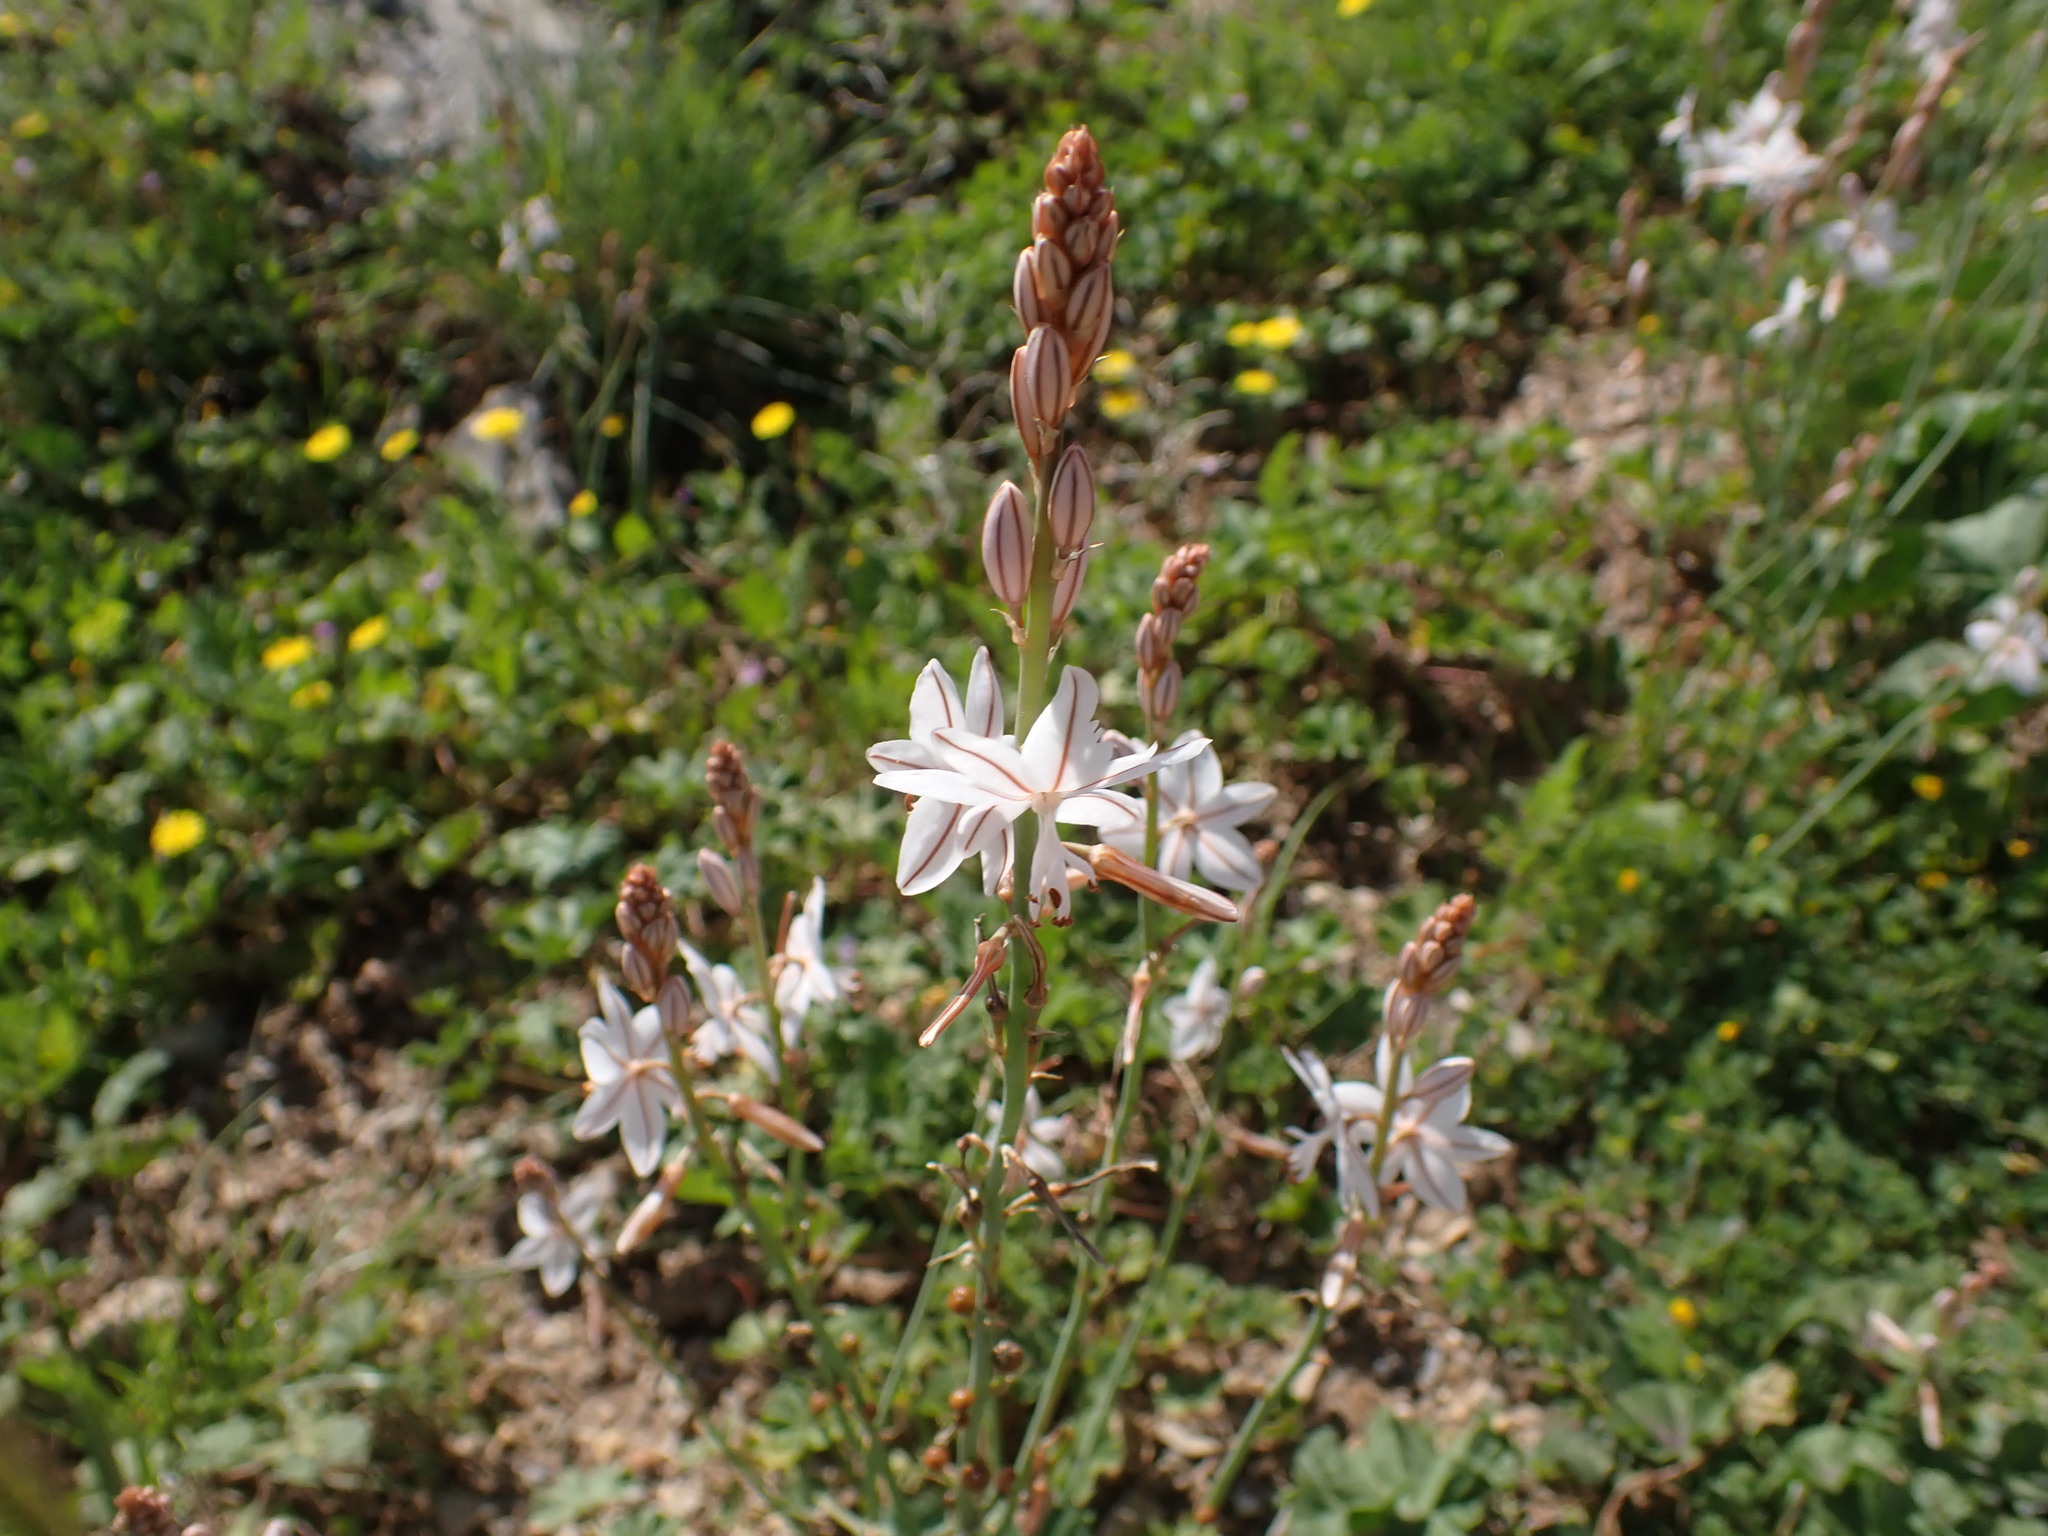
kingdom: Plantae
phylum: Tracheophyta
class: Liliopsida
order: Asparagales
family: Asphodelaceae
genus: Asphodelus
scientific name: Asphodelus fistulosus
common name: Onionweed
